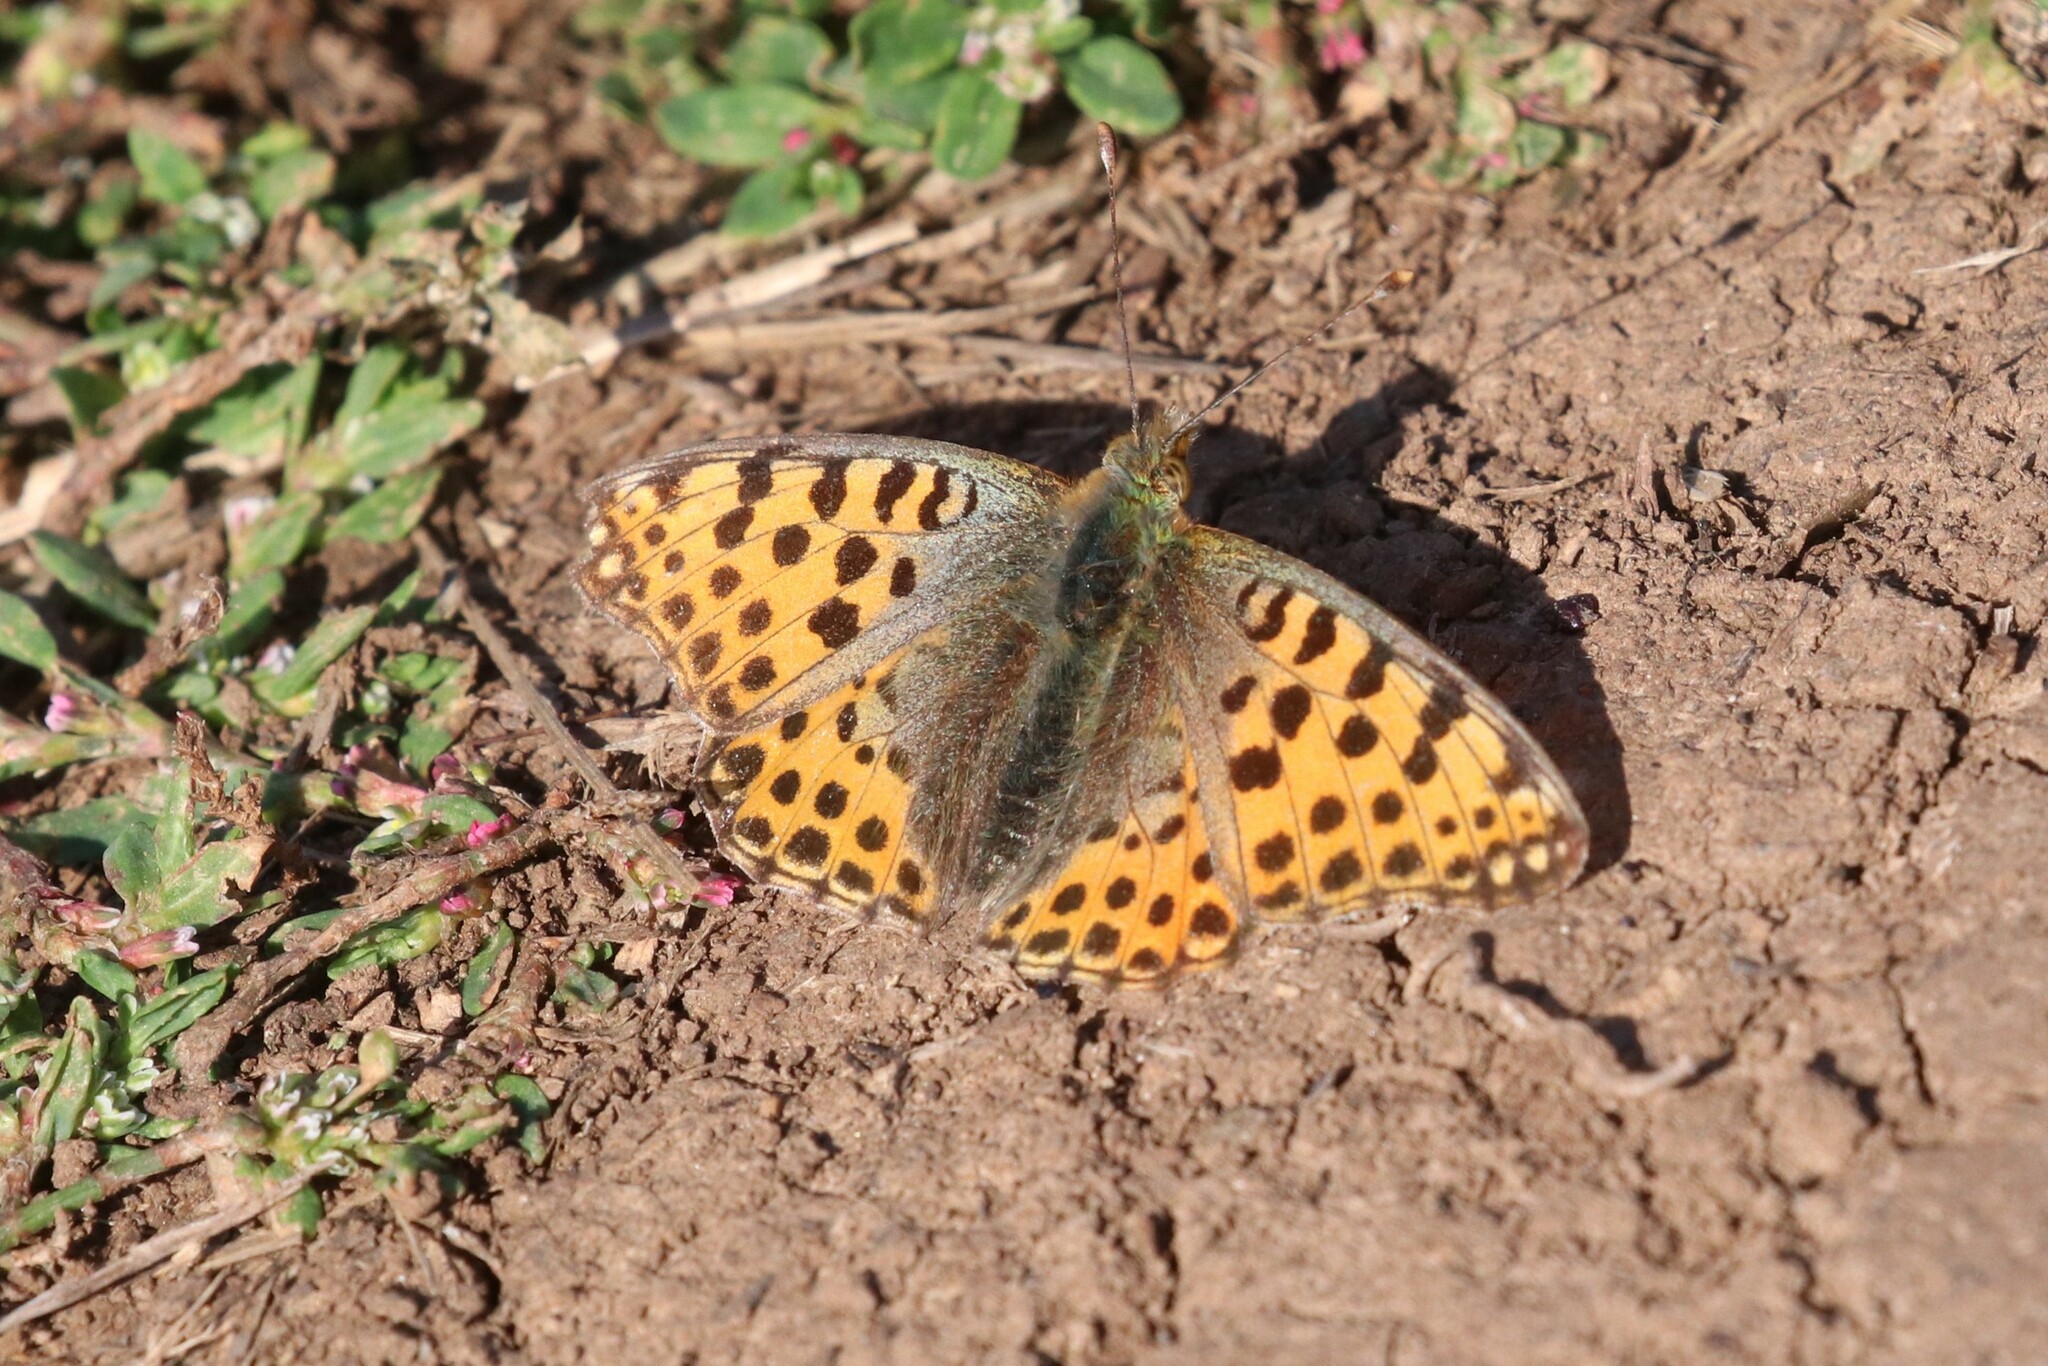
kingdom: Animalia
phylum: Arthropoda
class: Insecta
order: Lepidoptera
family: Nymphalidae
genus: Issoria
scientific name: Issoria lathonia
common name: Queen of spain fritillary
